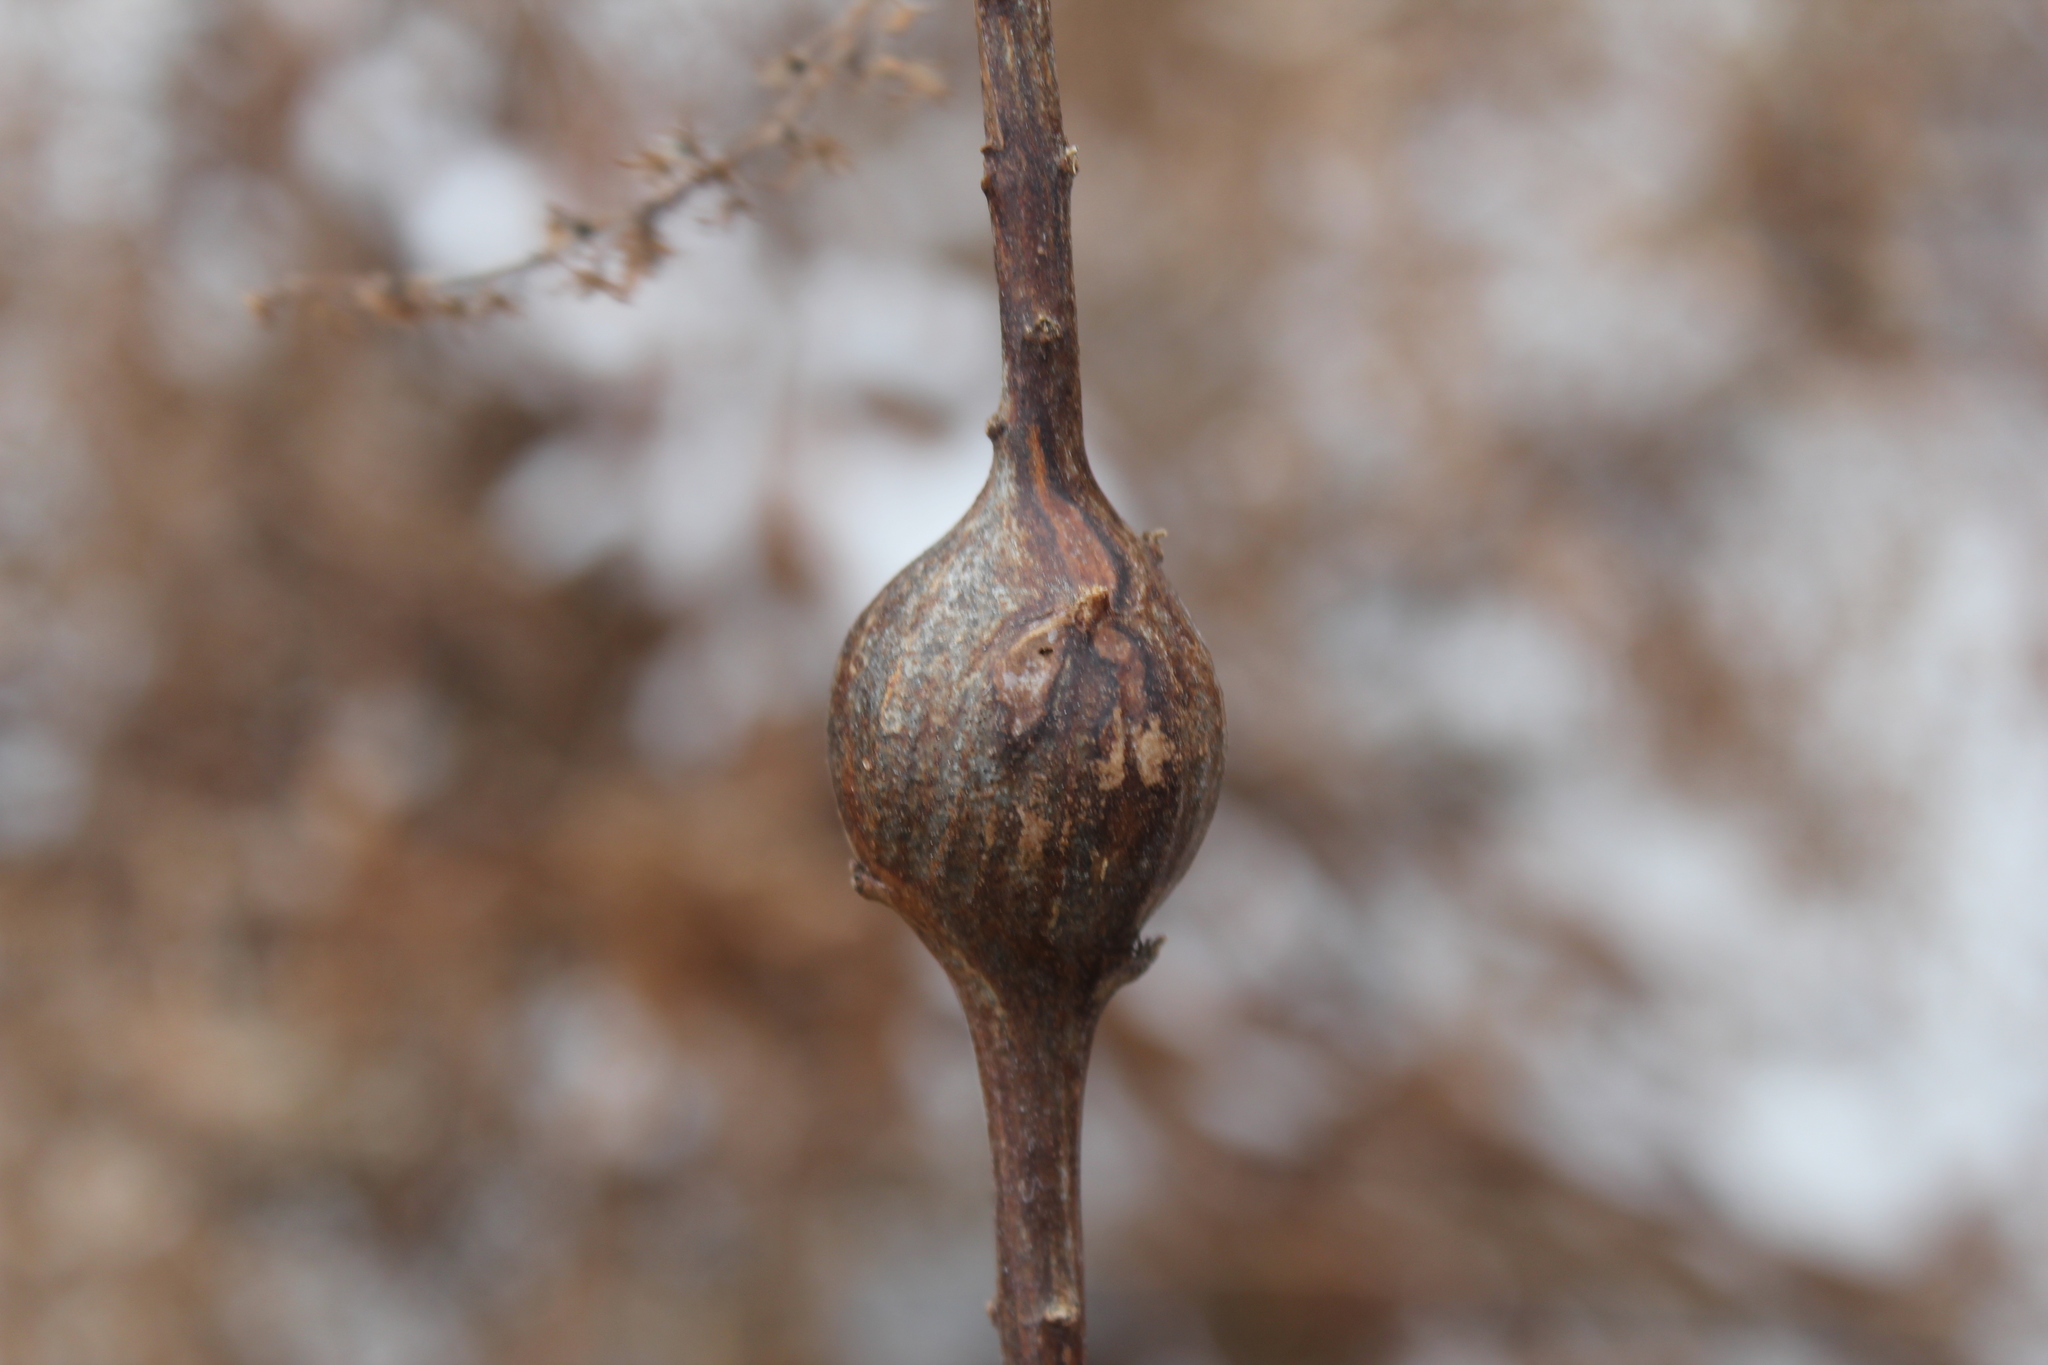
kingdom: Animalia
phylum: Arthropoda
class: Insecta
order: Diptera
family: Tephritidae
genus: Eurosta
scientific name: Eurosta solidaginis
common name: Goldenrod gall fly
